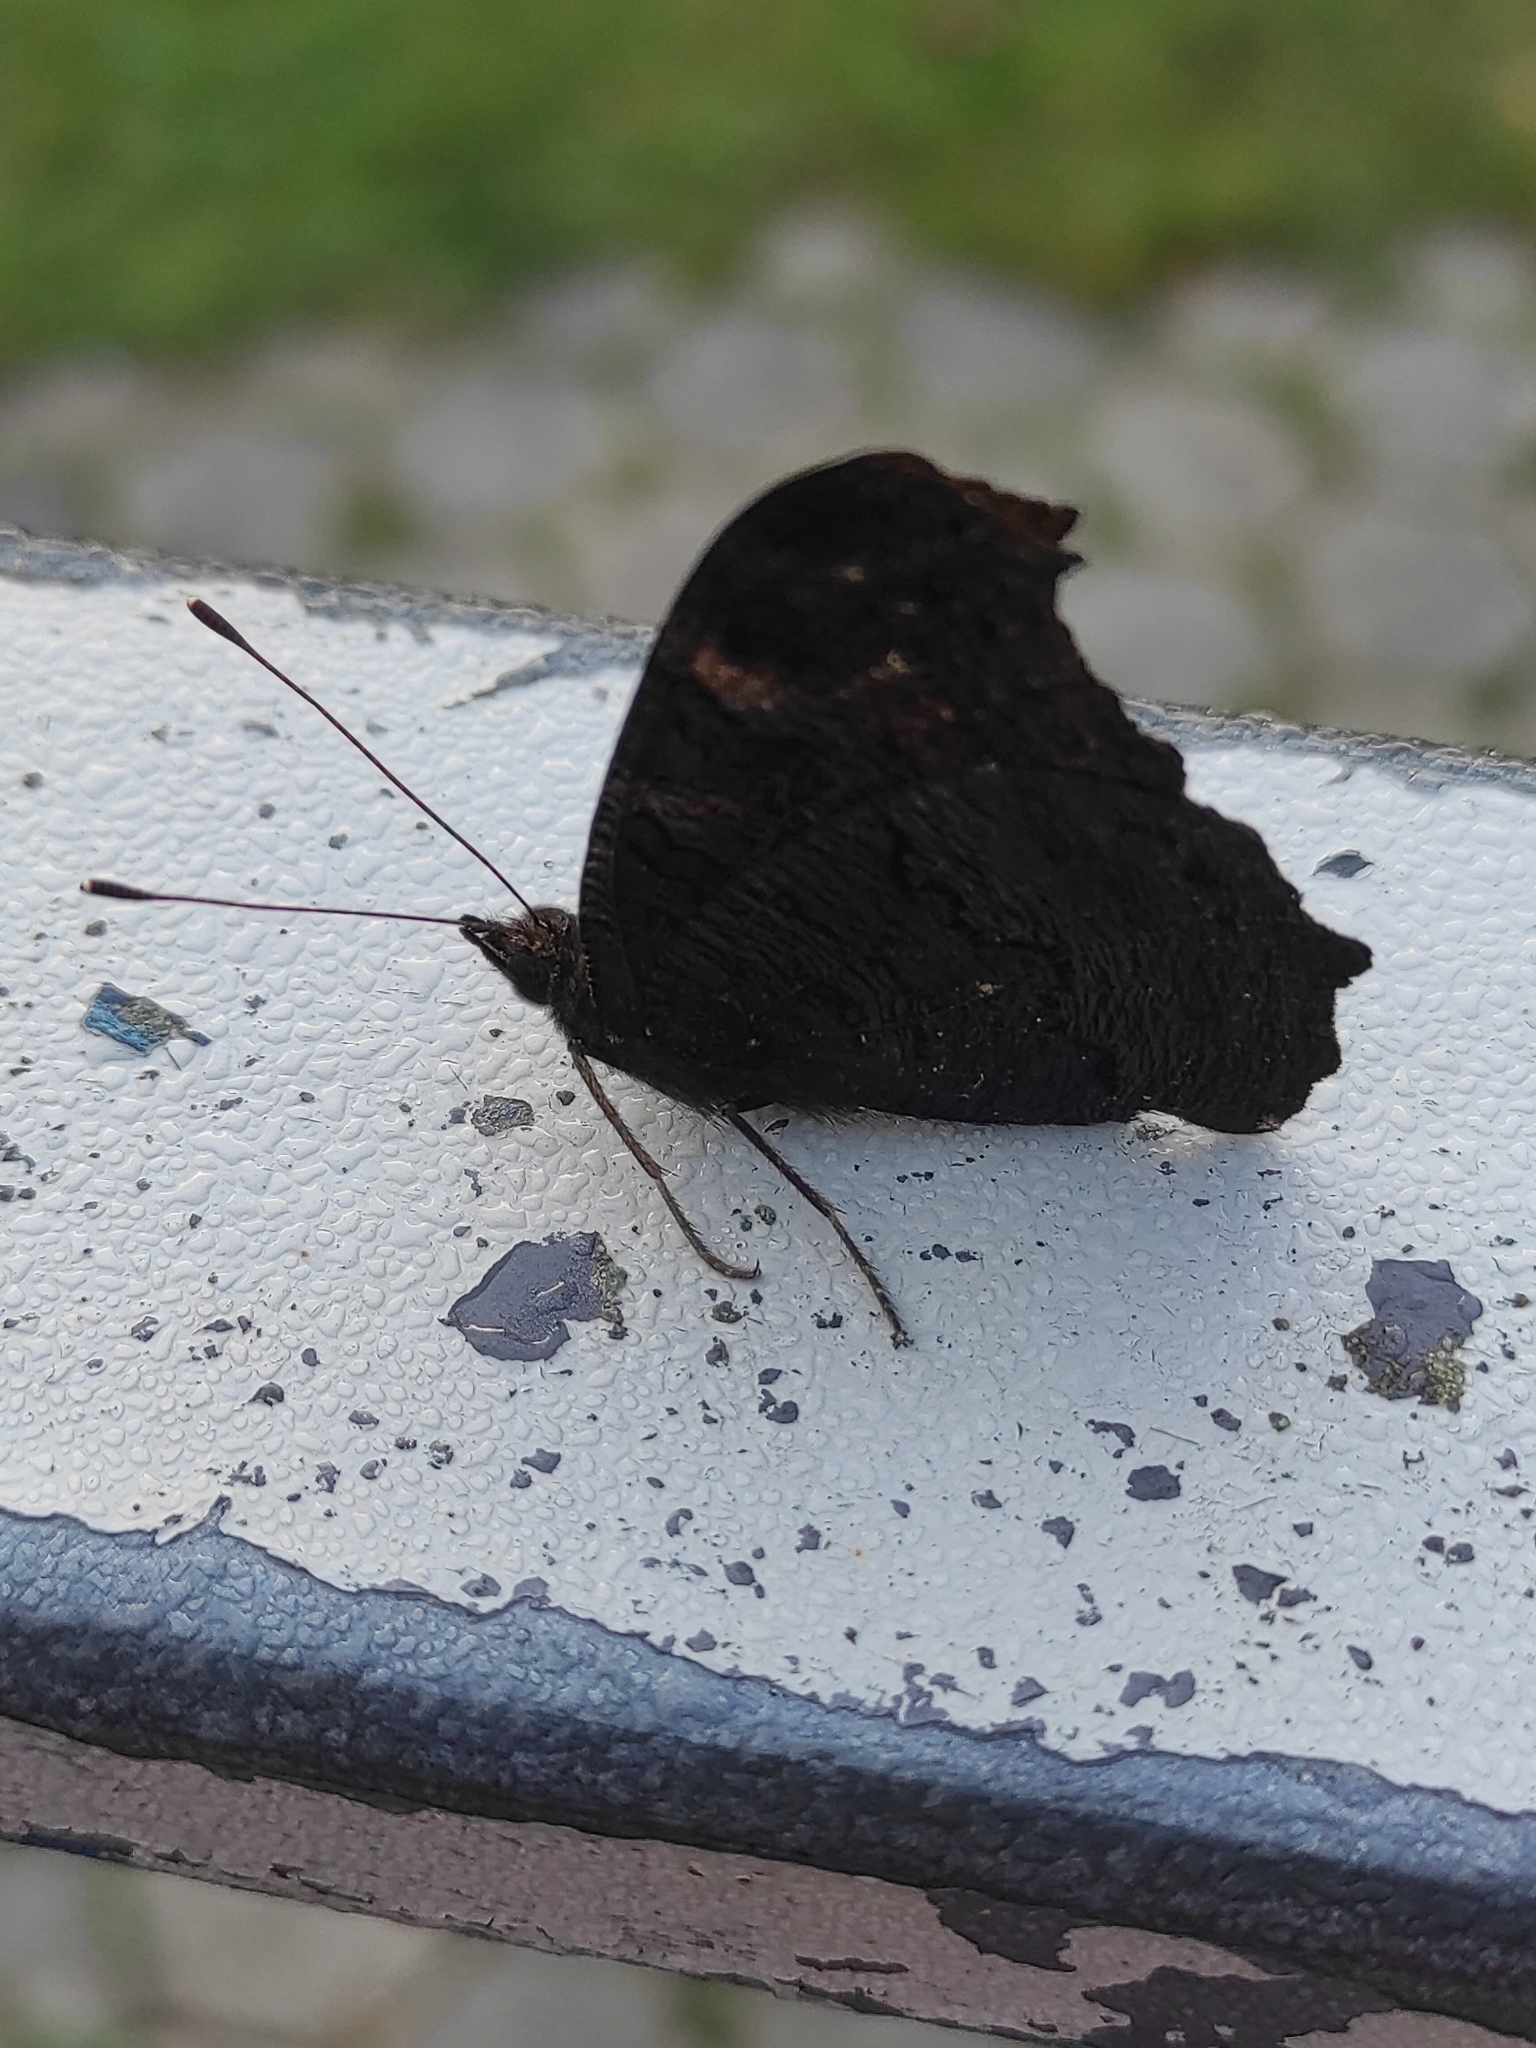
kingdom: Animalia
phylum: Arthropoda
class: Insecta
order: Lepidoptera
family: Nymphalidae
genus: Aglais
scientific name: Aglais io
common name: Peacock
